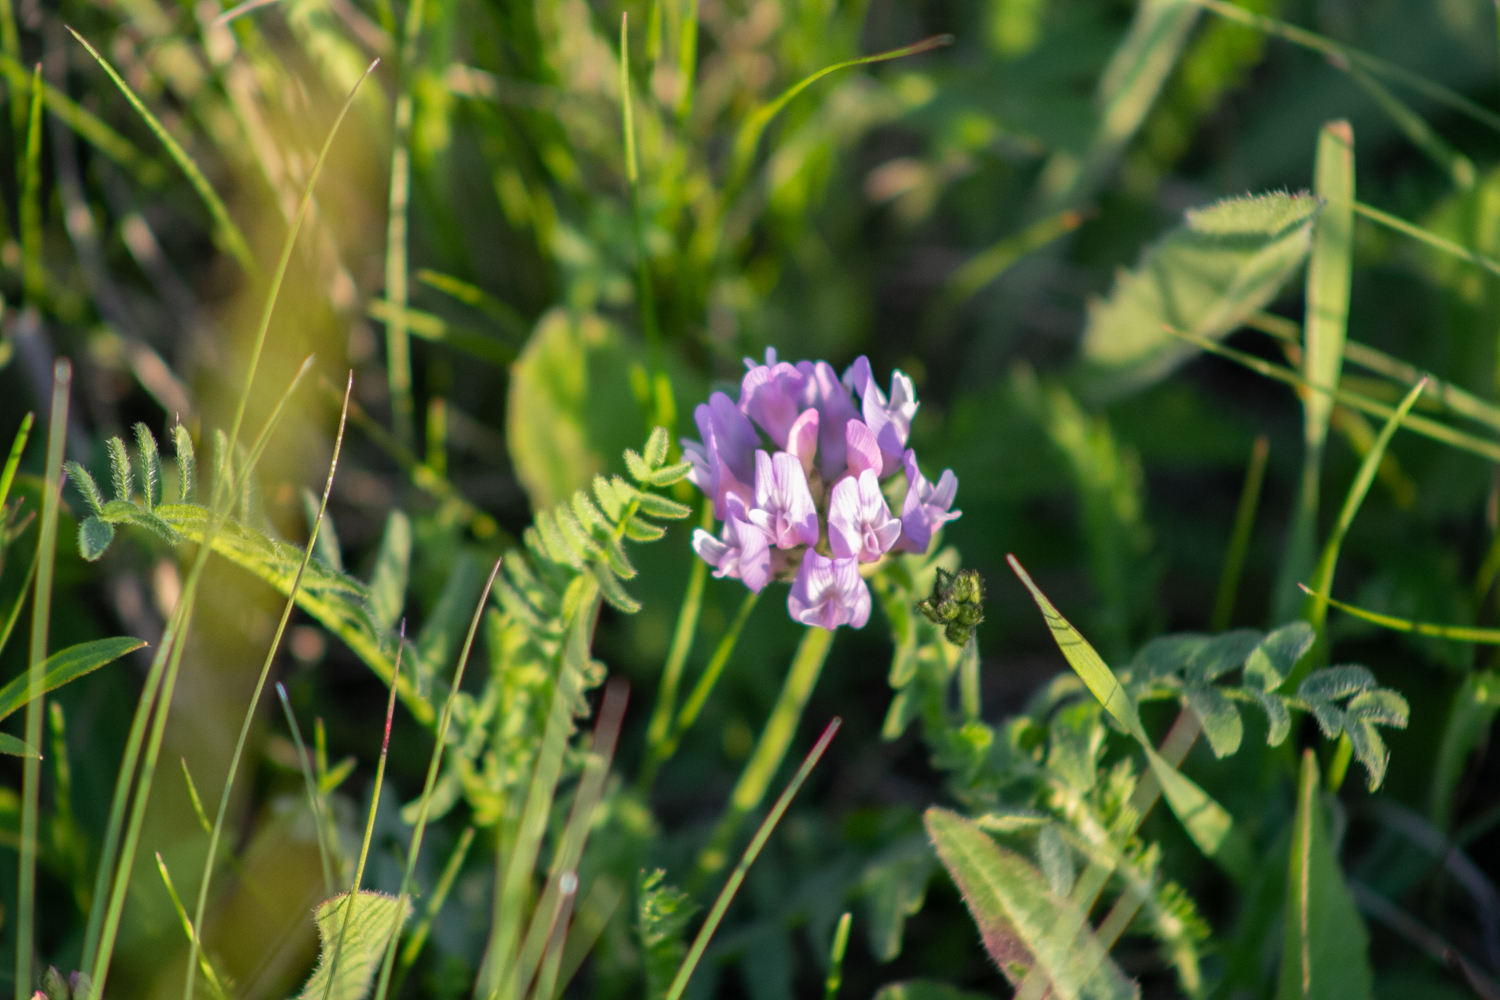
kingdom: Plantae
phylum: Tracheophyta
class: Magnoliopsida
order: Fabales
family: Fabaceae
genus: Astragalus
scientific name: Astragalus danicus
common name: Purple milk-vetch
